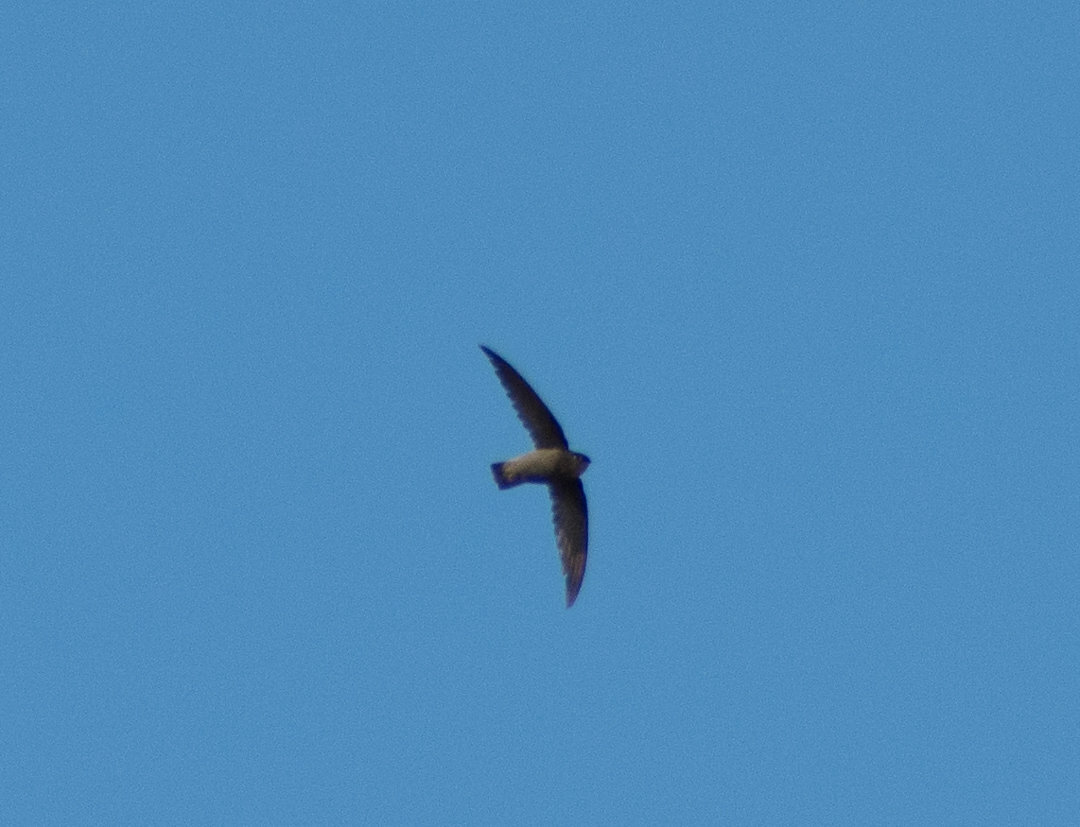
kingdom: Animalia
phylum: Chordata
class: Aves
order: Apodiformes
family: Apodidae
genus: Chaetura
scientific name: Chaetura meridionalis
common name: Sick's swift
